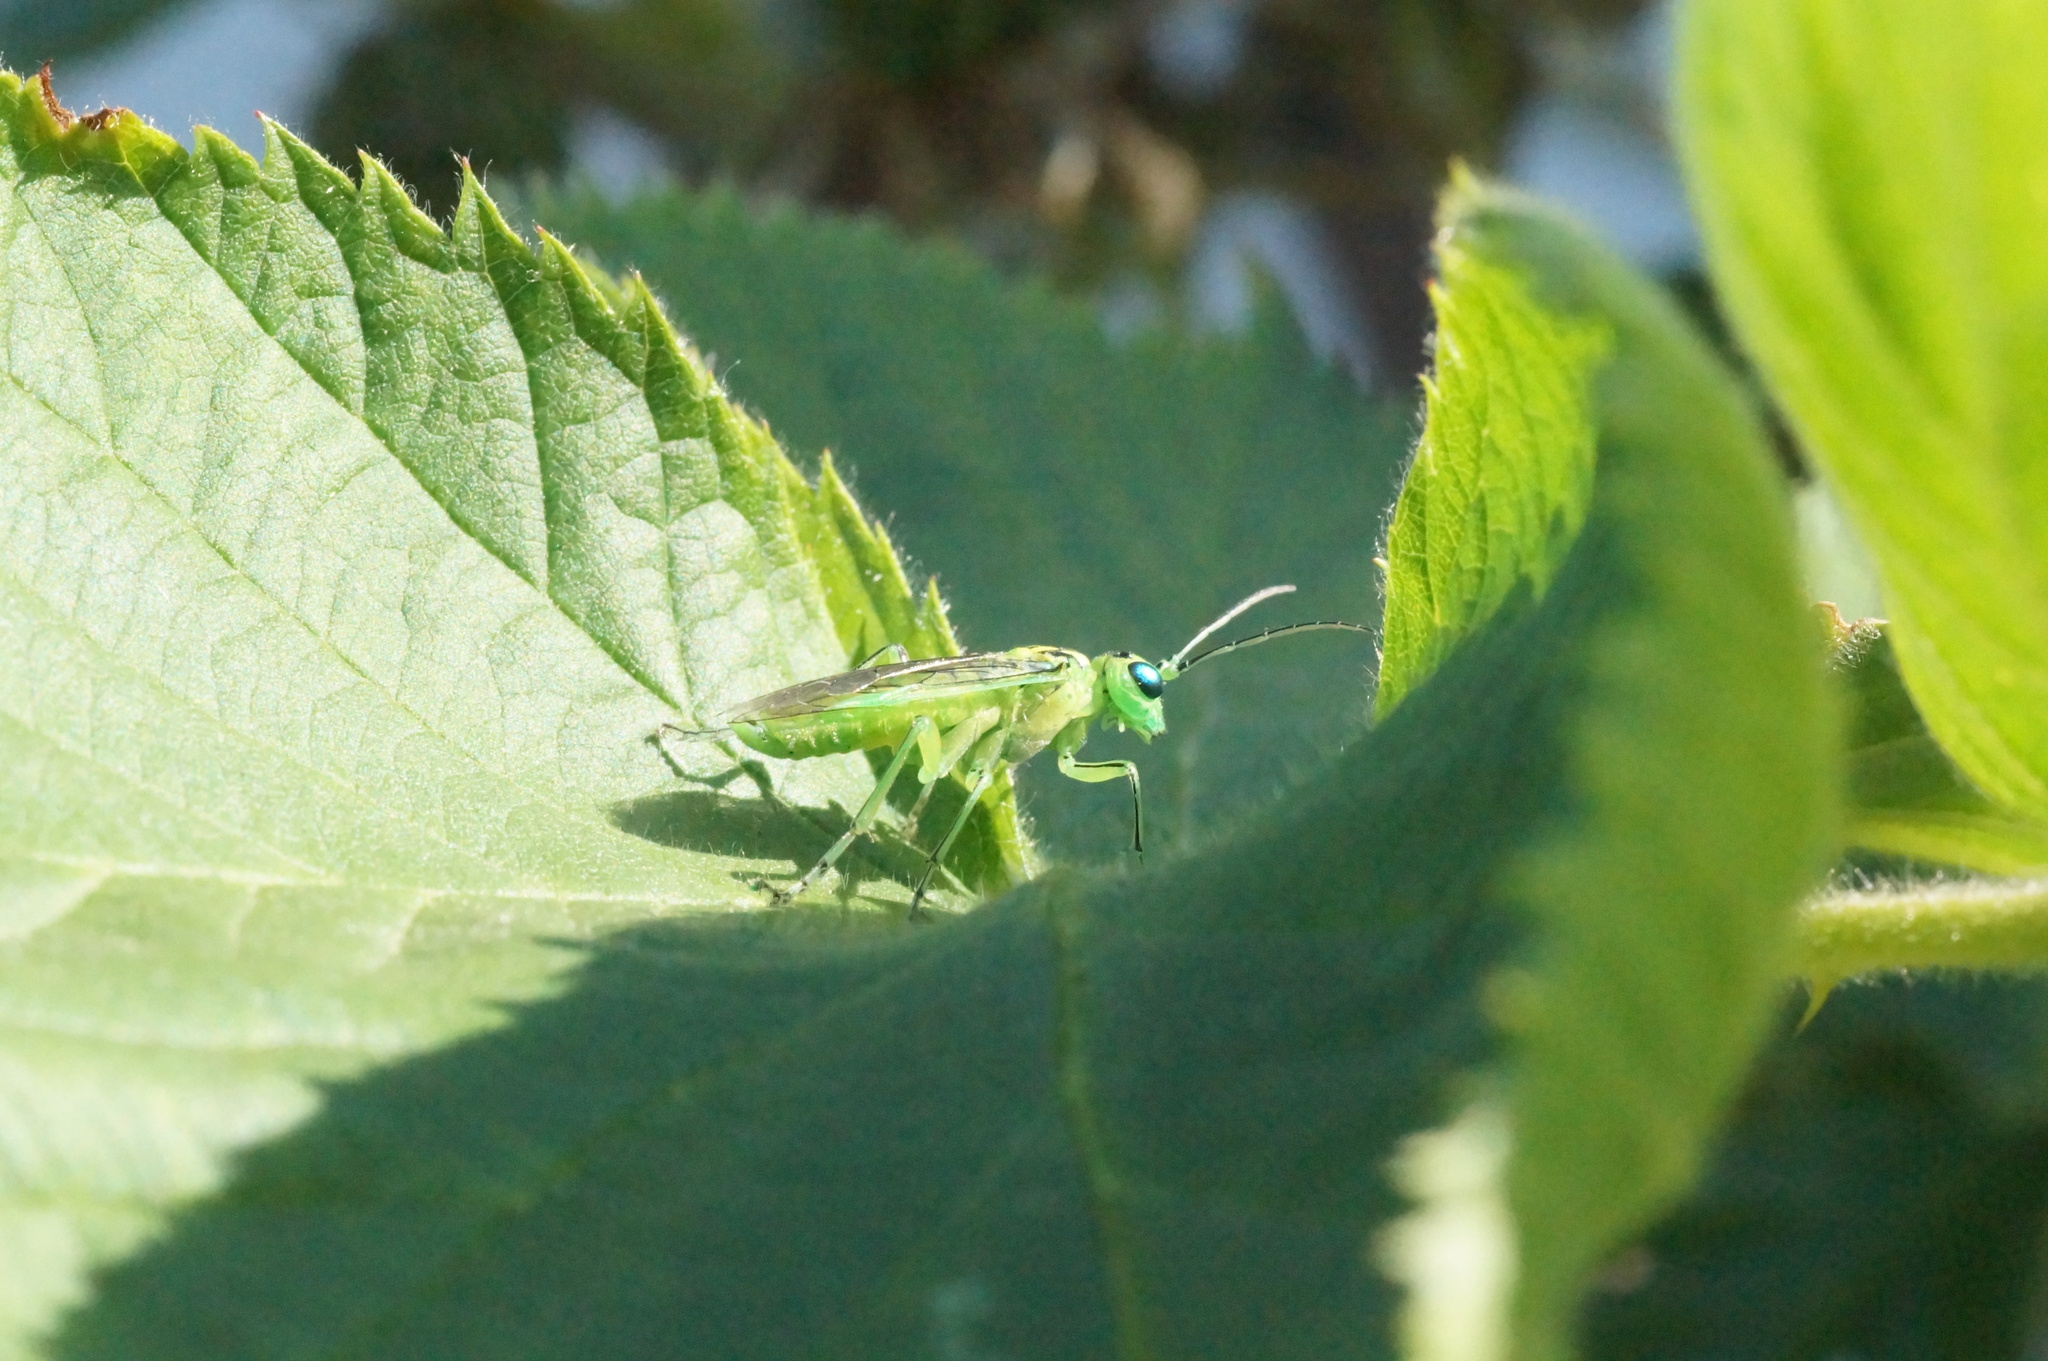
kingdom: Animalia
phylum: Arthropoda
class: Insecta
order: Hymenoptera
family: Tenthredinidae
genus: Rhogogaster
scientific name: Rhogogaster
